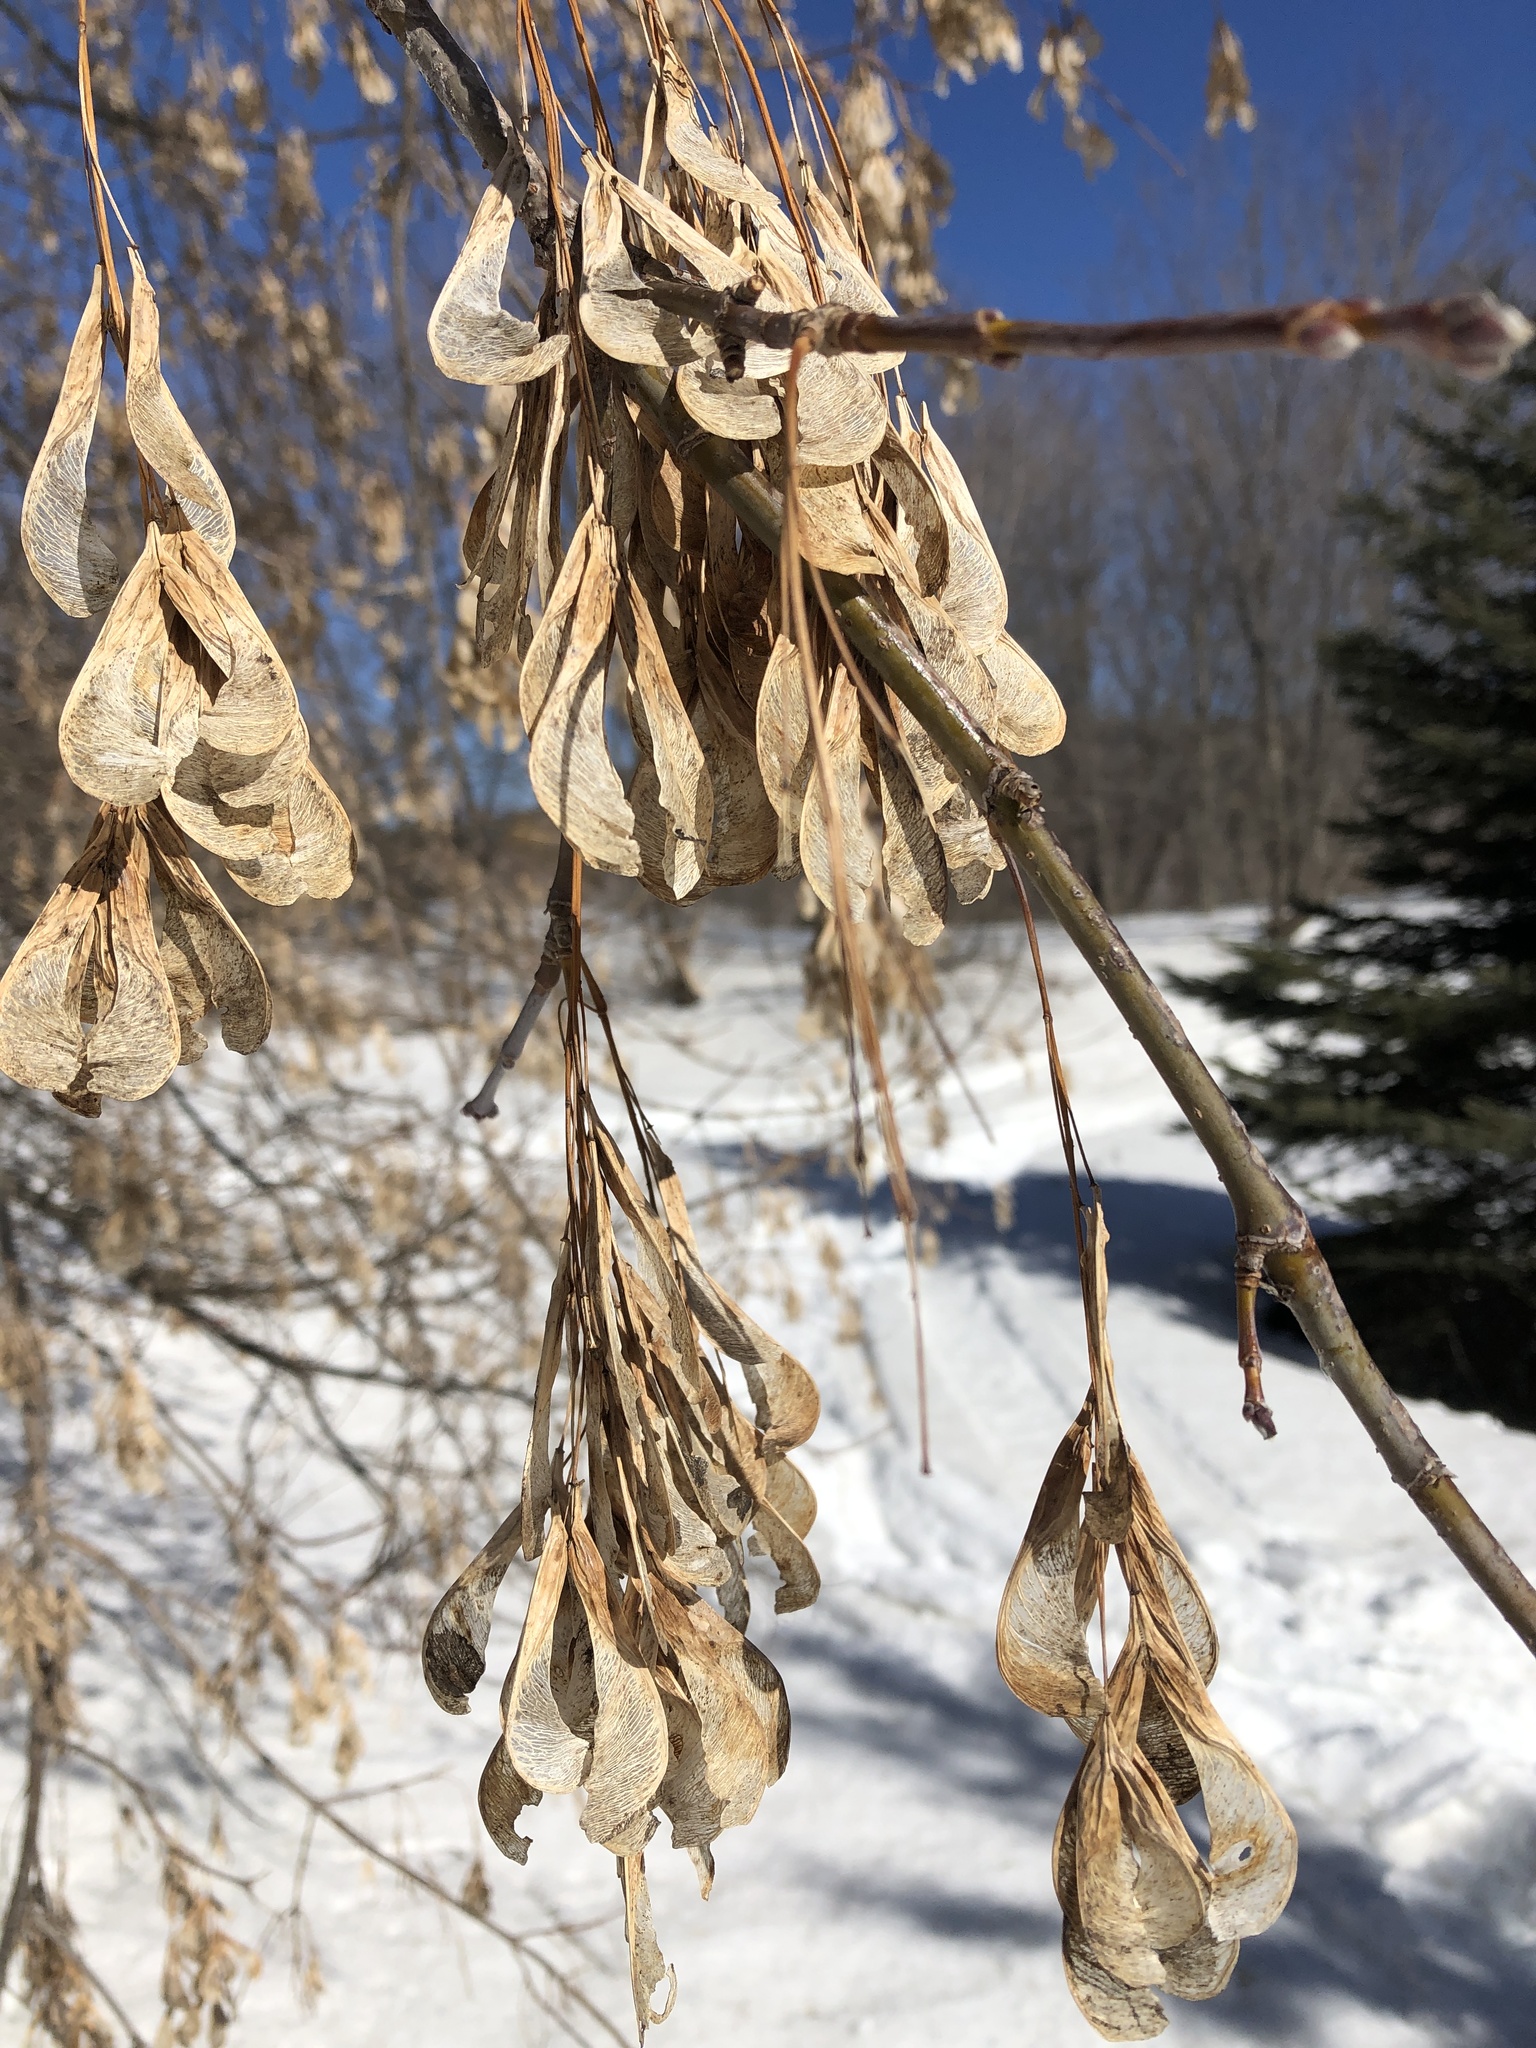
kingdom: Plantae
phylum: Tracheophyta
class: Magnoliopsida
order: Sapindales
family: Sapindaceae
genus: Acer
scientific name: Acer negundo
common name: Ashleaf maple
